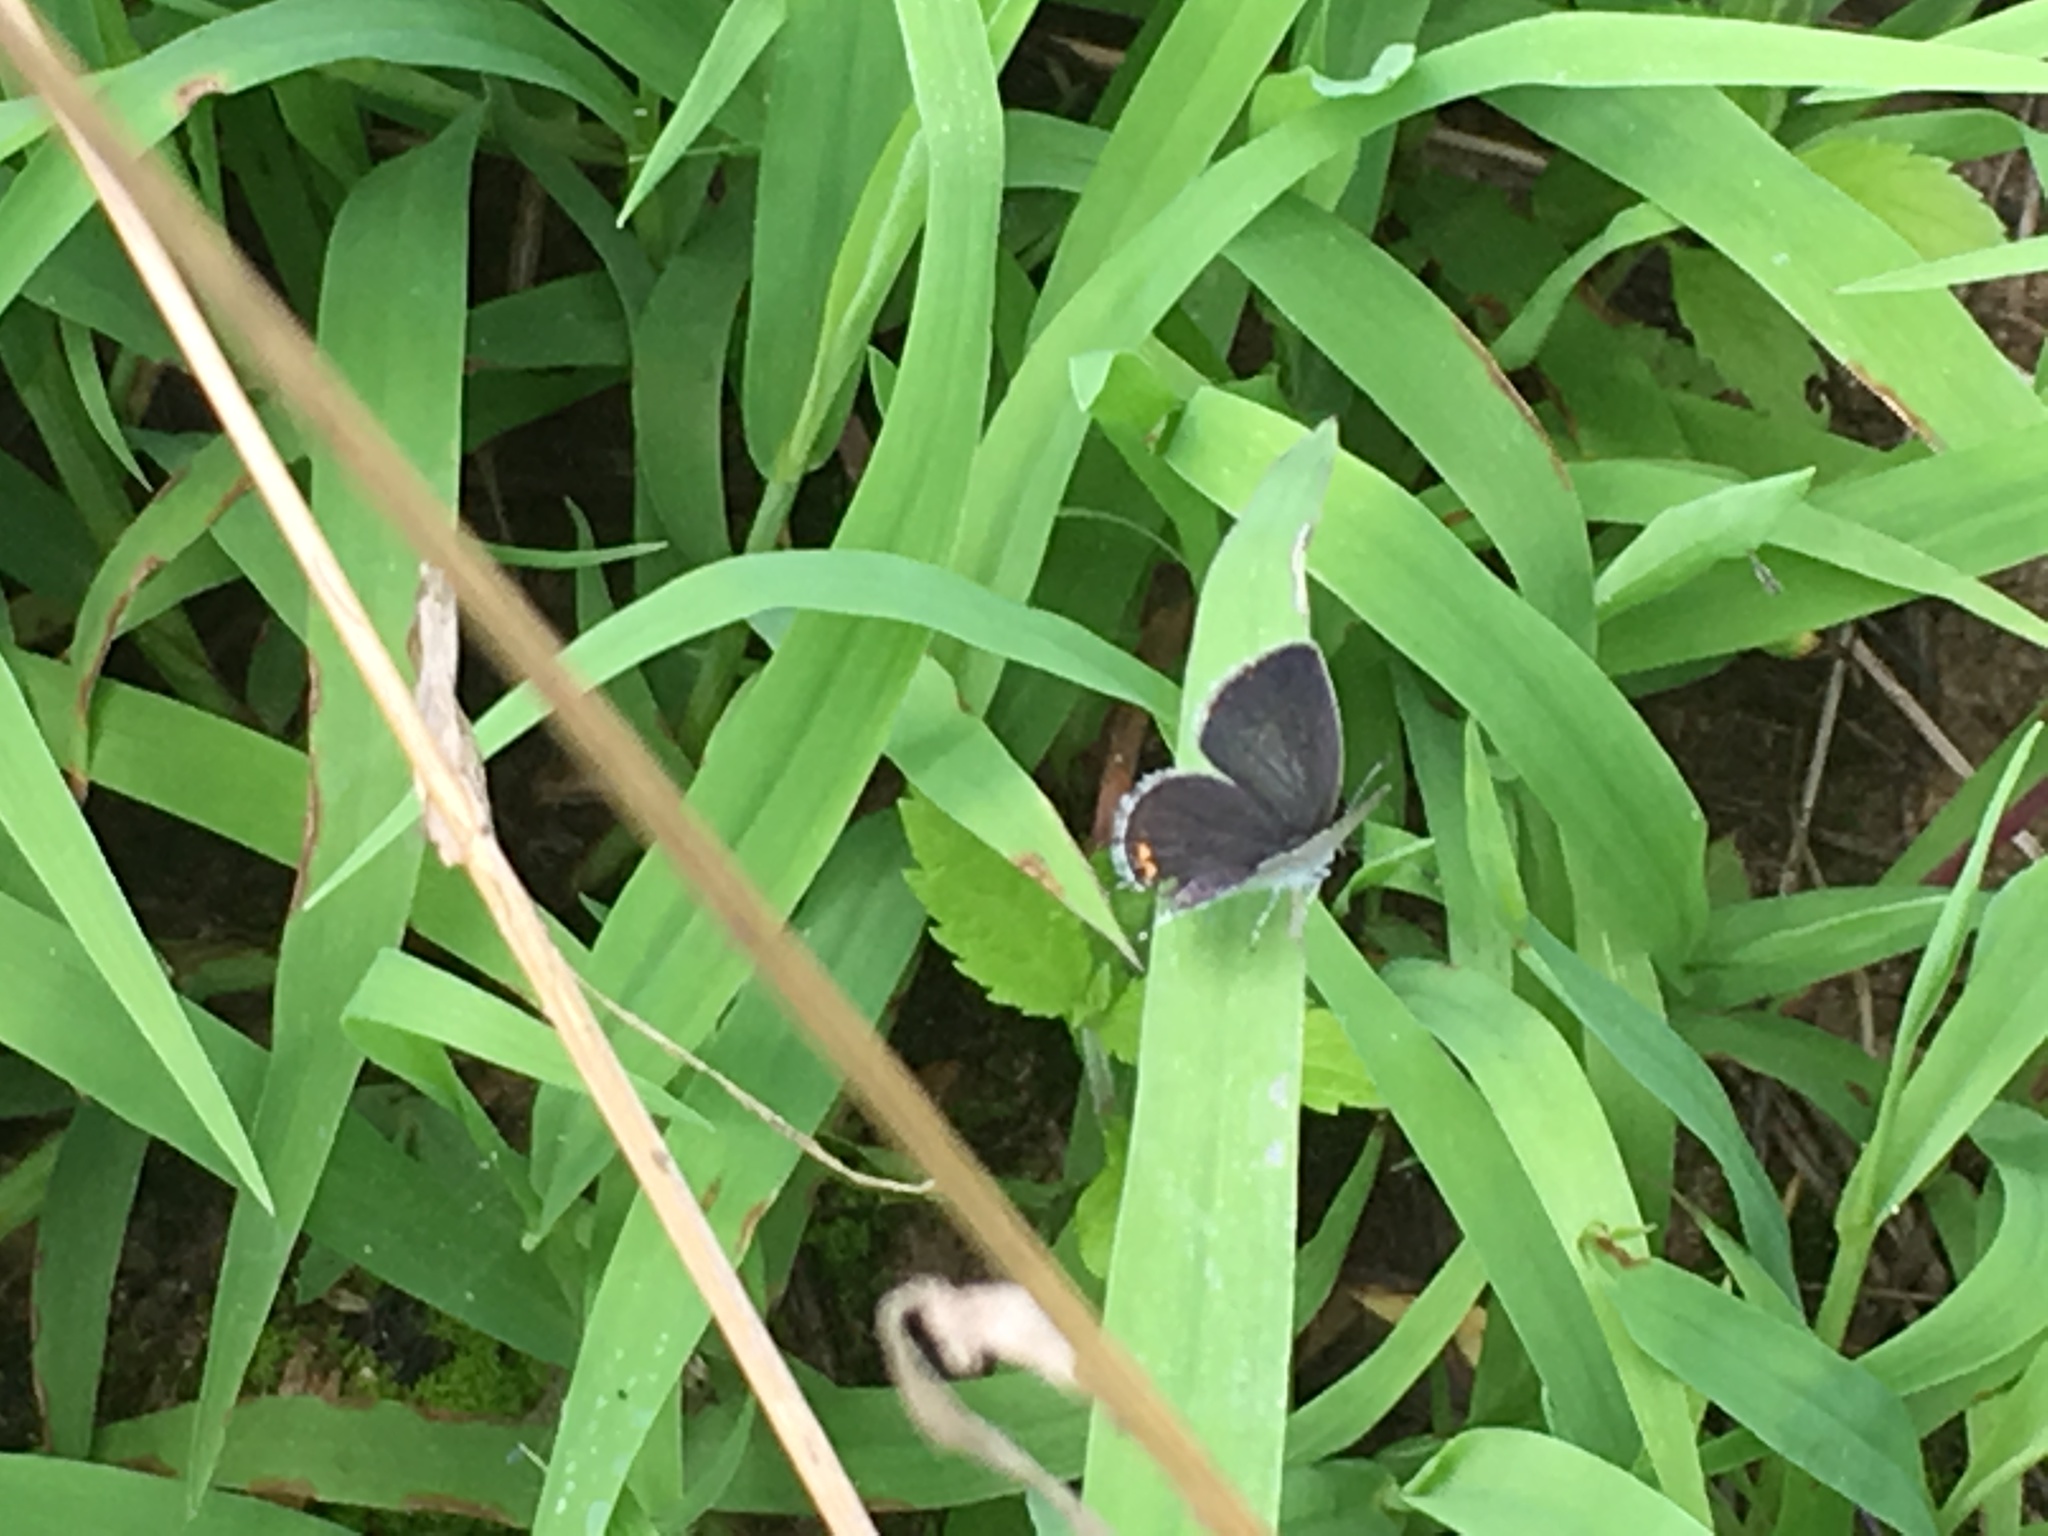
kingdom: Animalia
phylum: Arthropoda
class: Insecta
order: Lepidoptera
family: Lycaenidae
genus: Elkalyce
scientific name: Elkalyce comyntas
